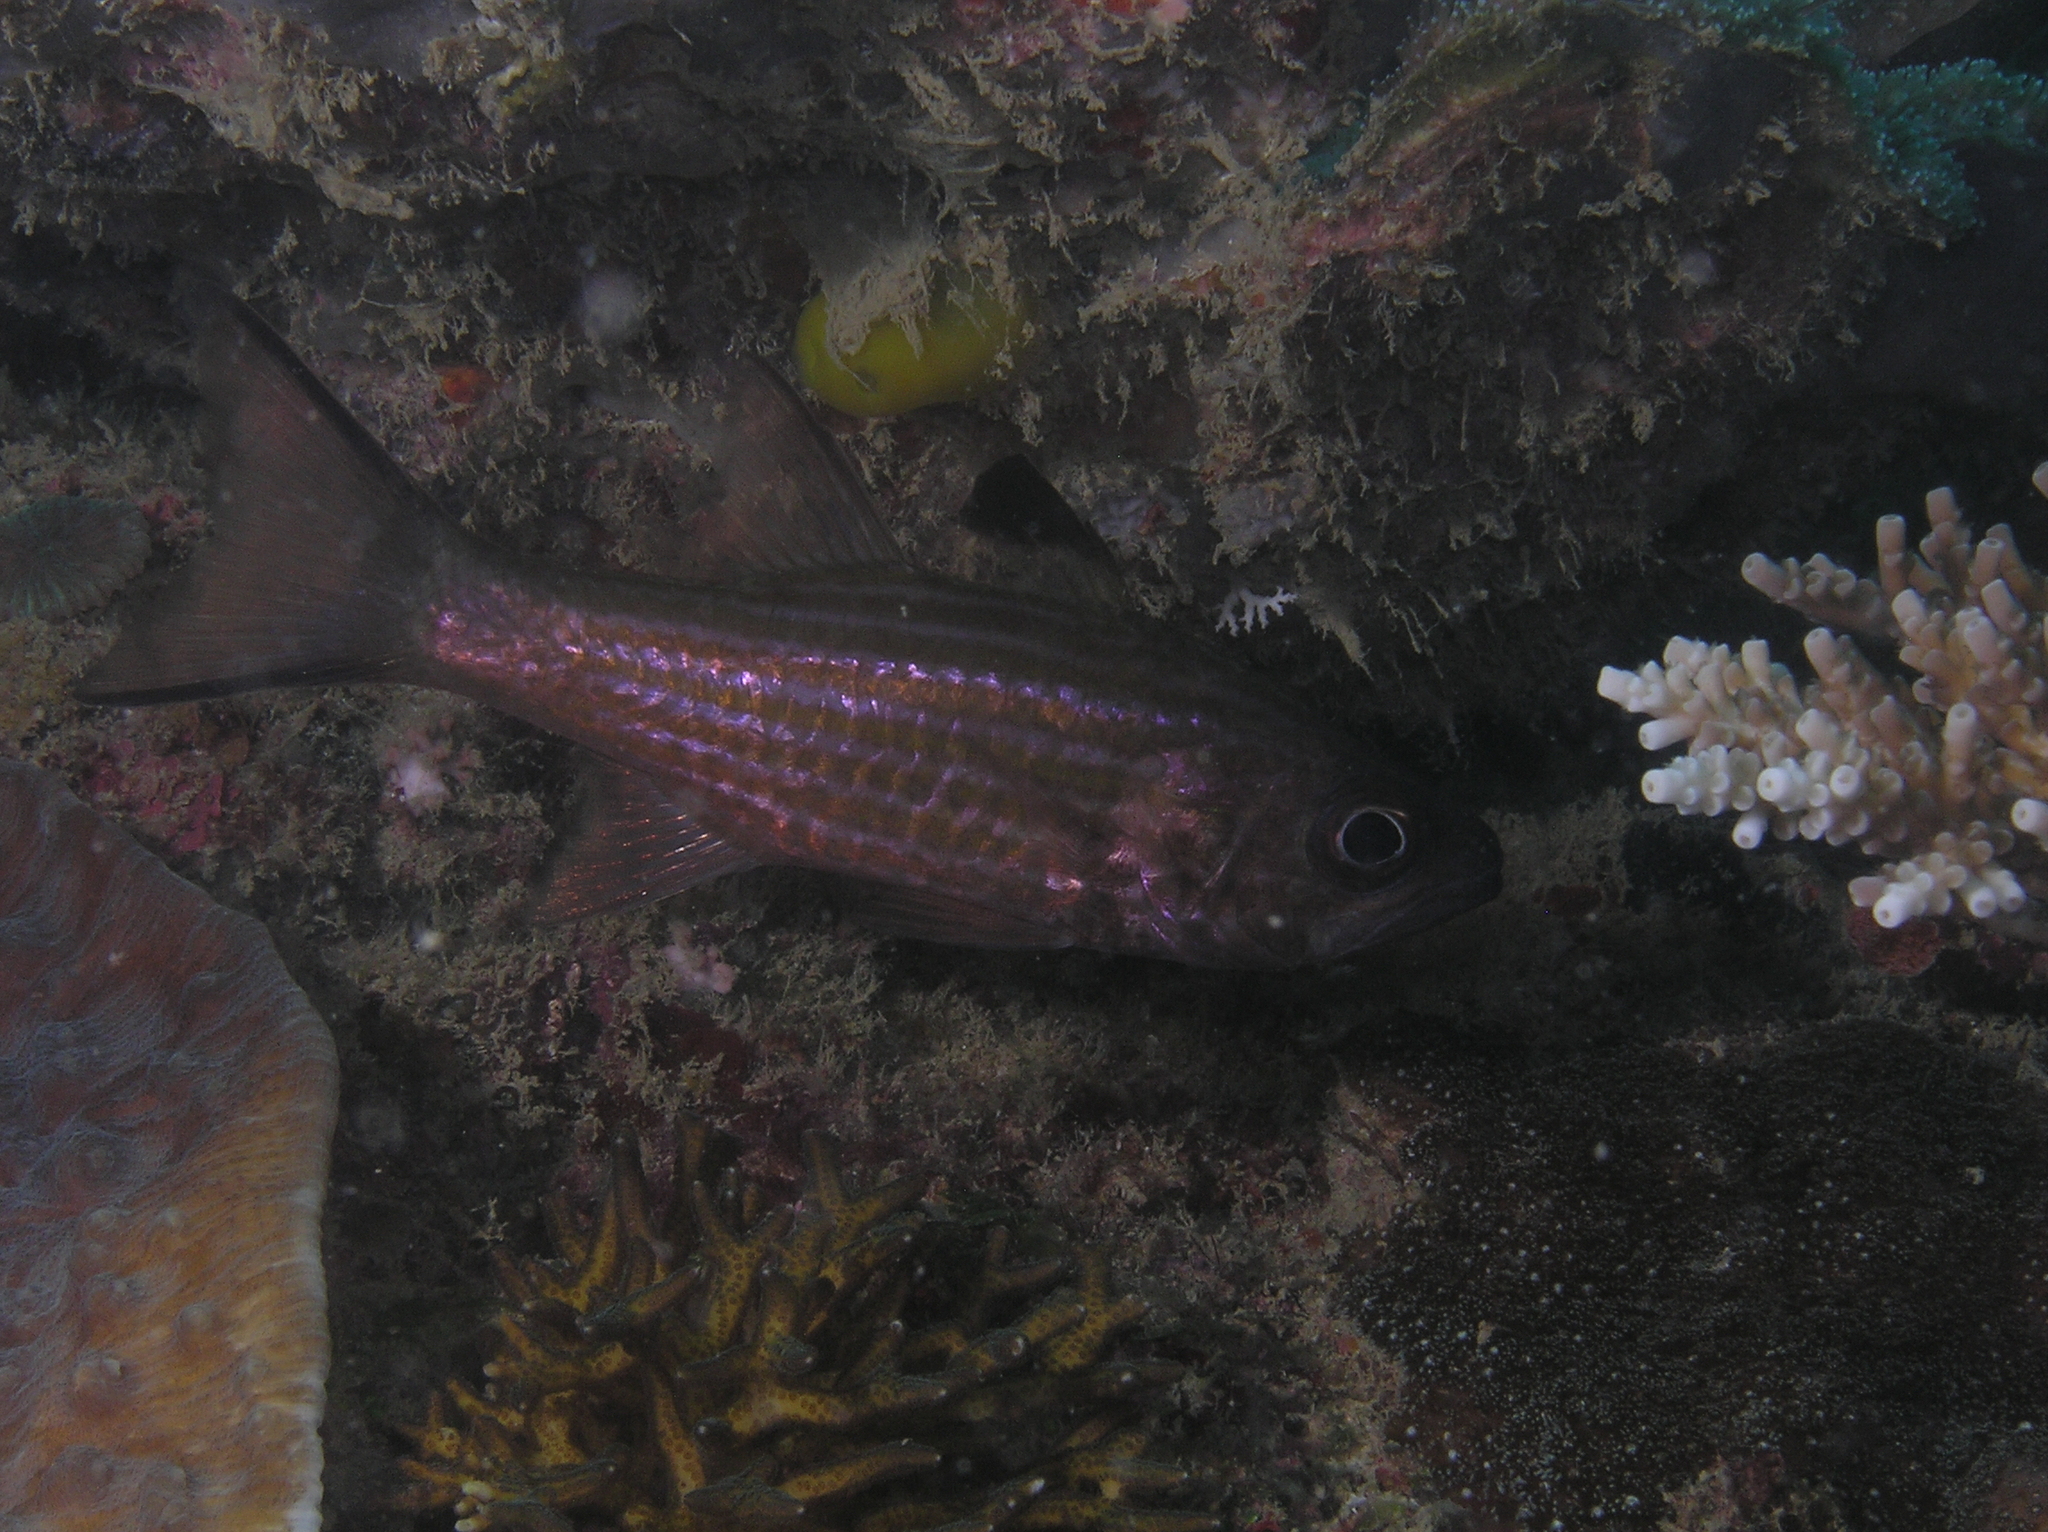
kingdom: Animalia
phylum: Chordata
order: Perciformes
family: Apogonidae
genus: Cheilodipterus
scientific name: Cheilodipterus alleni
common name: Allen's cardinalfish
